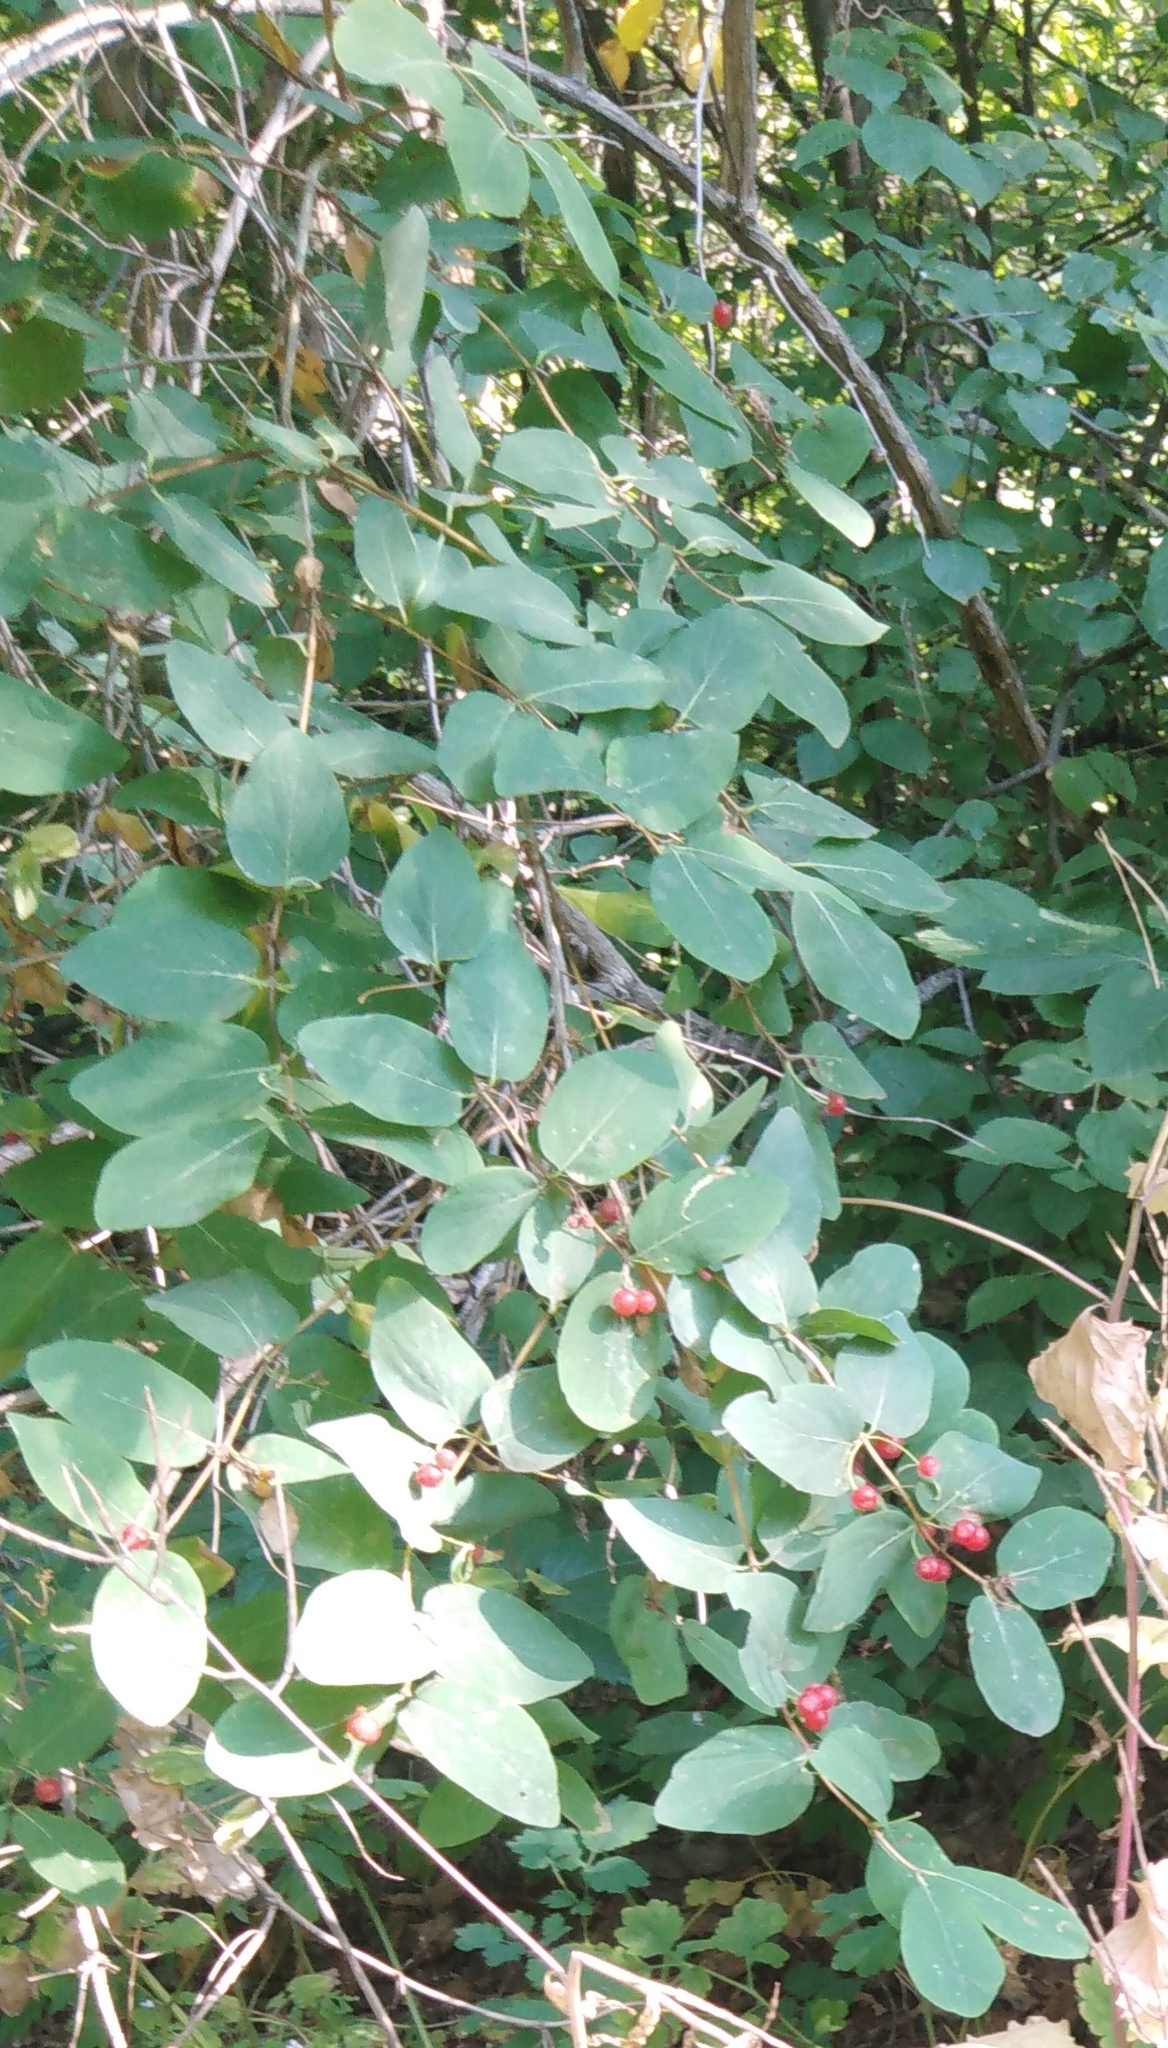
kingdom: Plantae
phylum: Tracheophyta
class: Magnoliopsida
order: Dipsacales
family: Caprifoliaceae
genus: Lonicera
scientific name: Lonicera tatarica
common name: Tatarian honeysuckle
